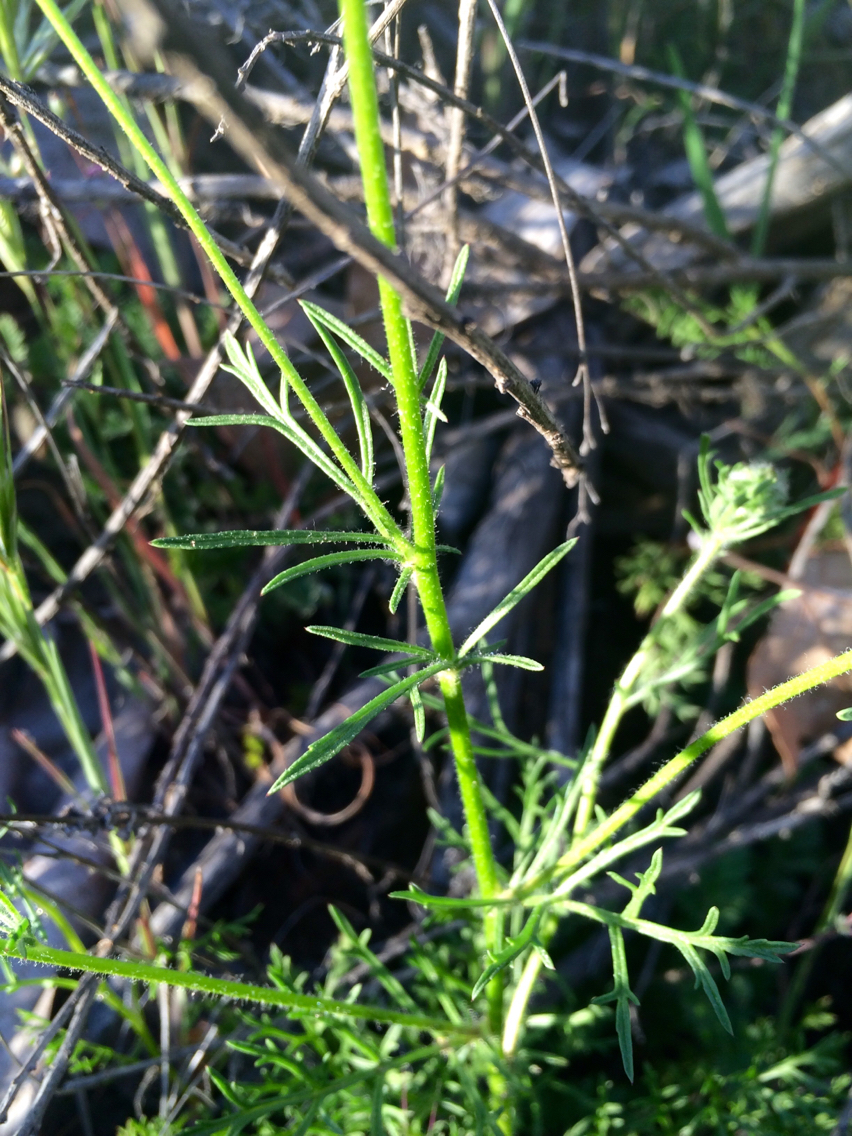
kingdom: Plantae
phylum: Tracheophyta
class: Magnoliopsida
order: Ericales
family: Polemoniaceae
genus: Gilia
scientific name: Gilia capitata
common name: Bluehead gilia
